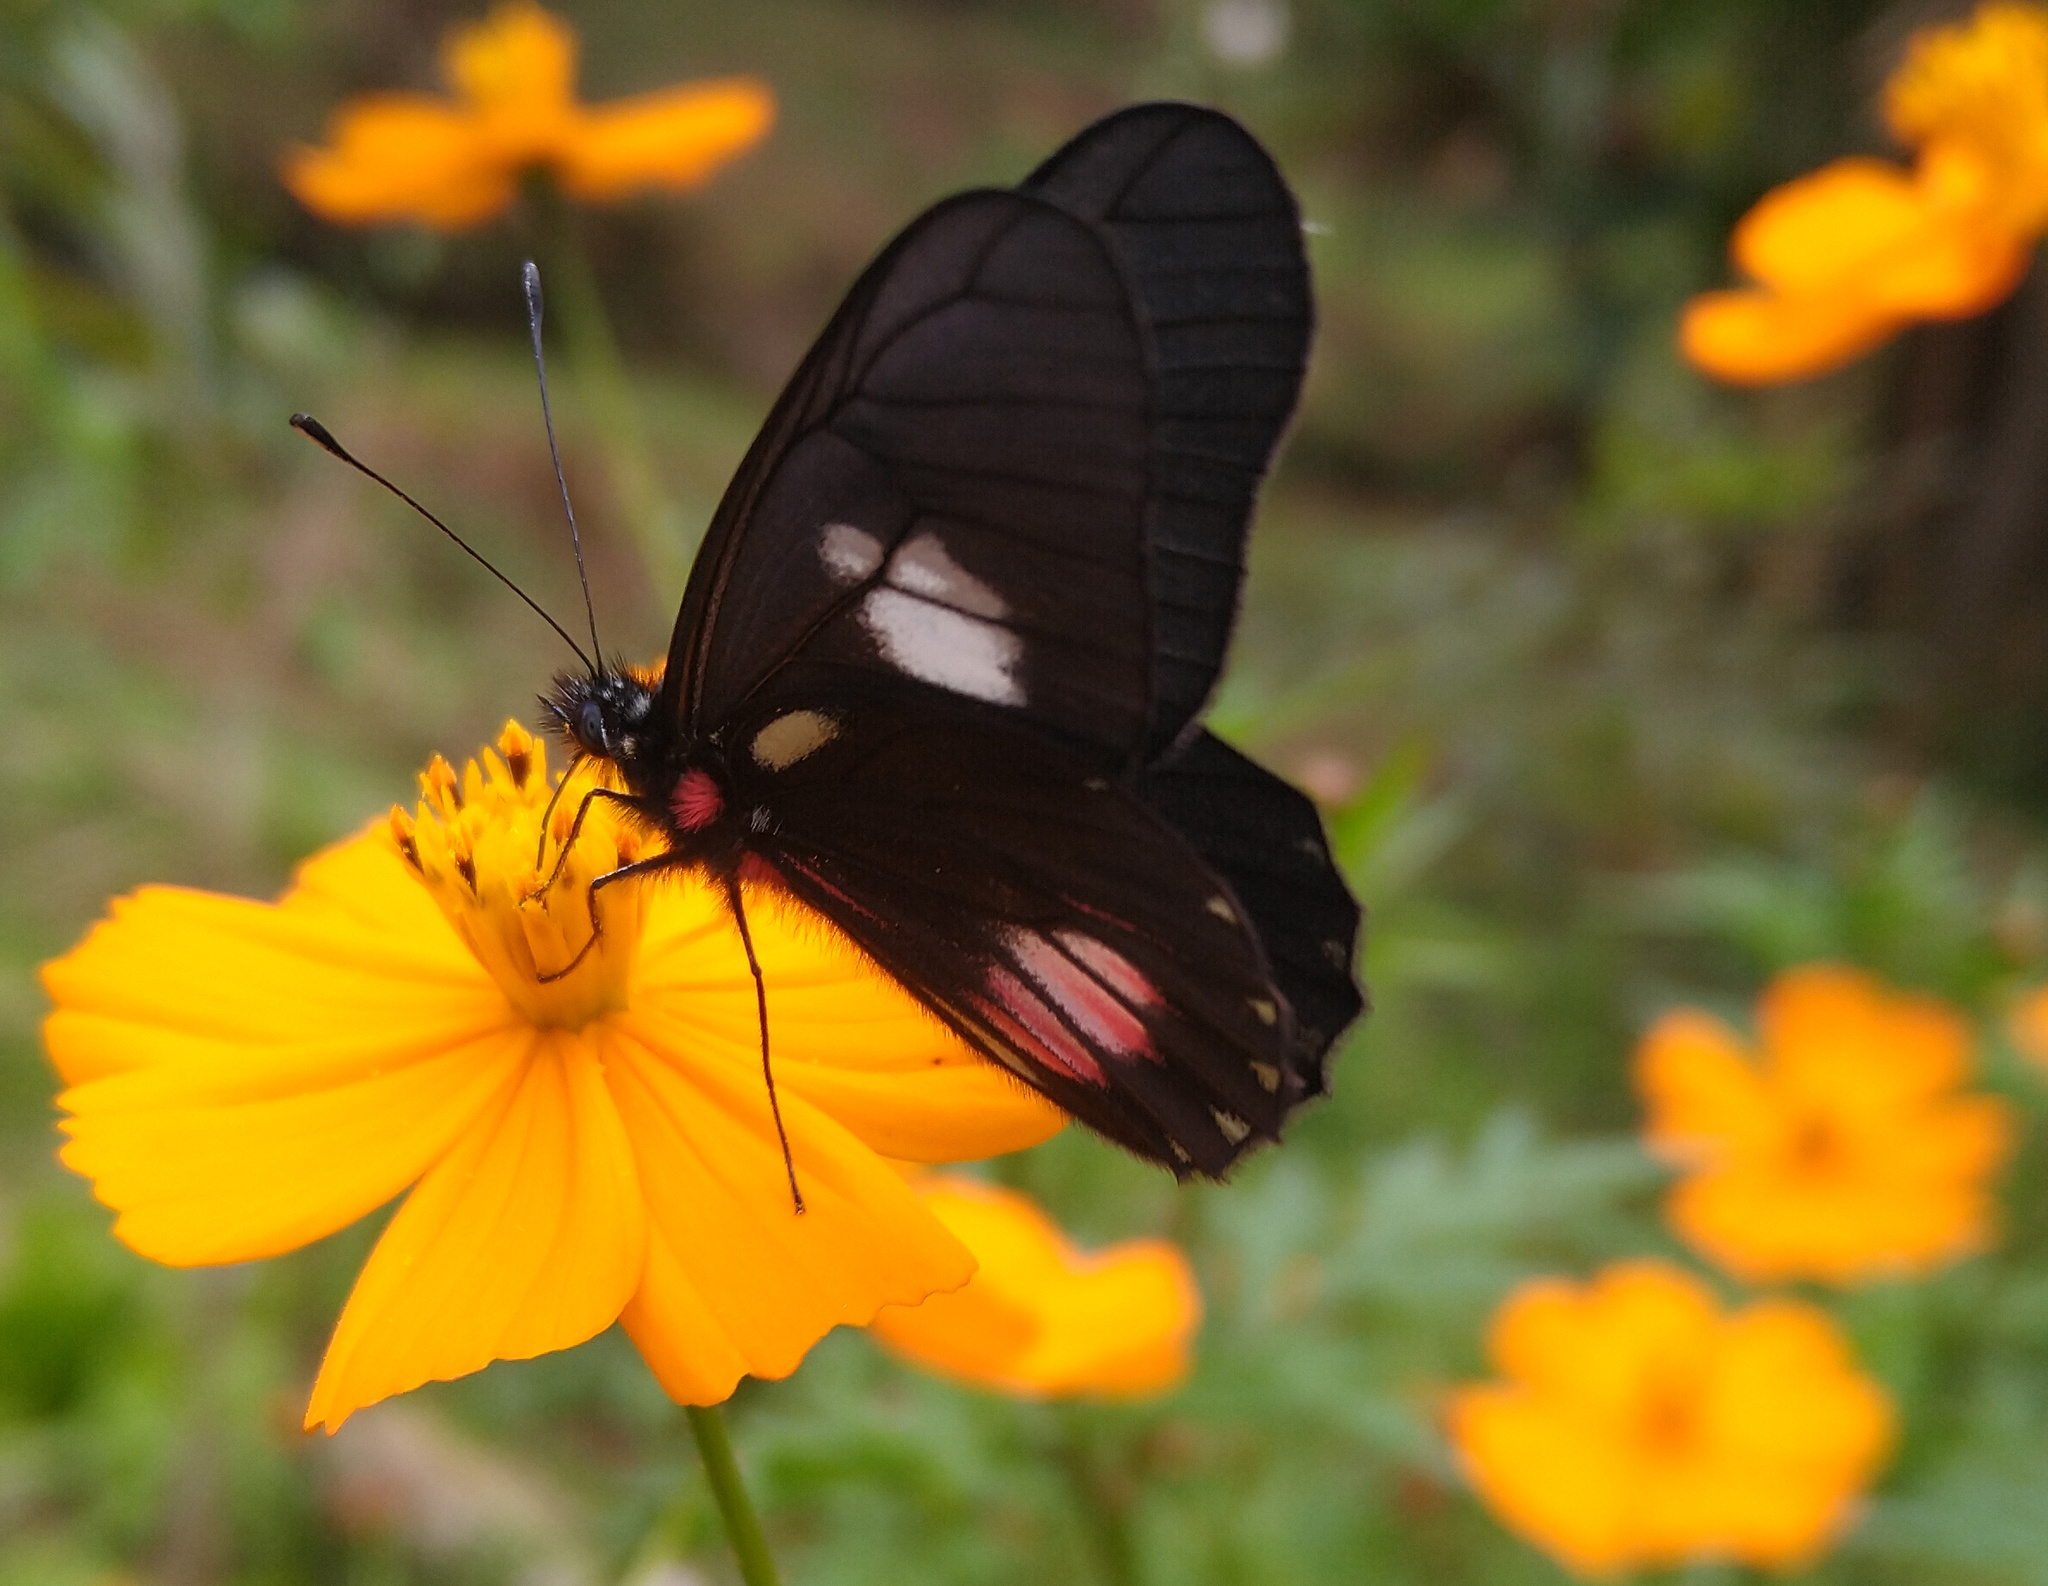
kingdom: Animalia
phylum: Arthropoda
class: Insecta
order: Lepidoptera
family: Pieridae
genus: Archonias
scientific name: Archonias brassolis
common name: Cattleheart white
